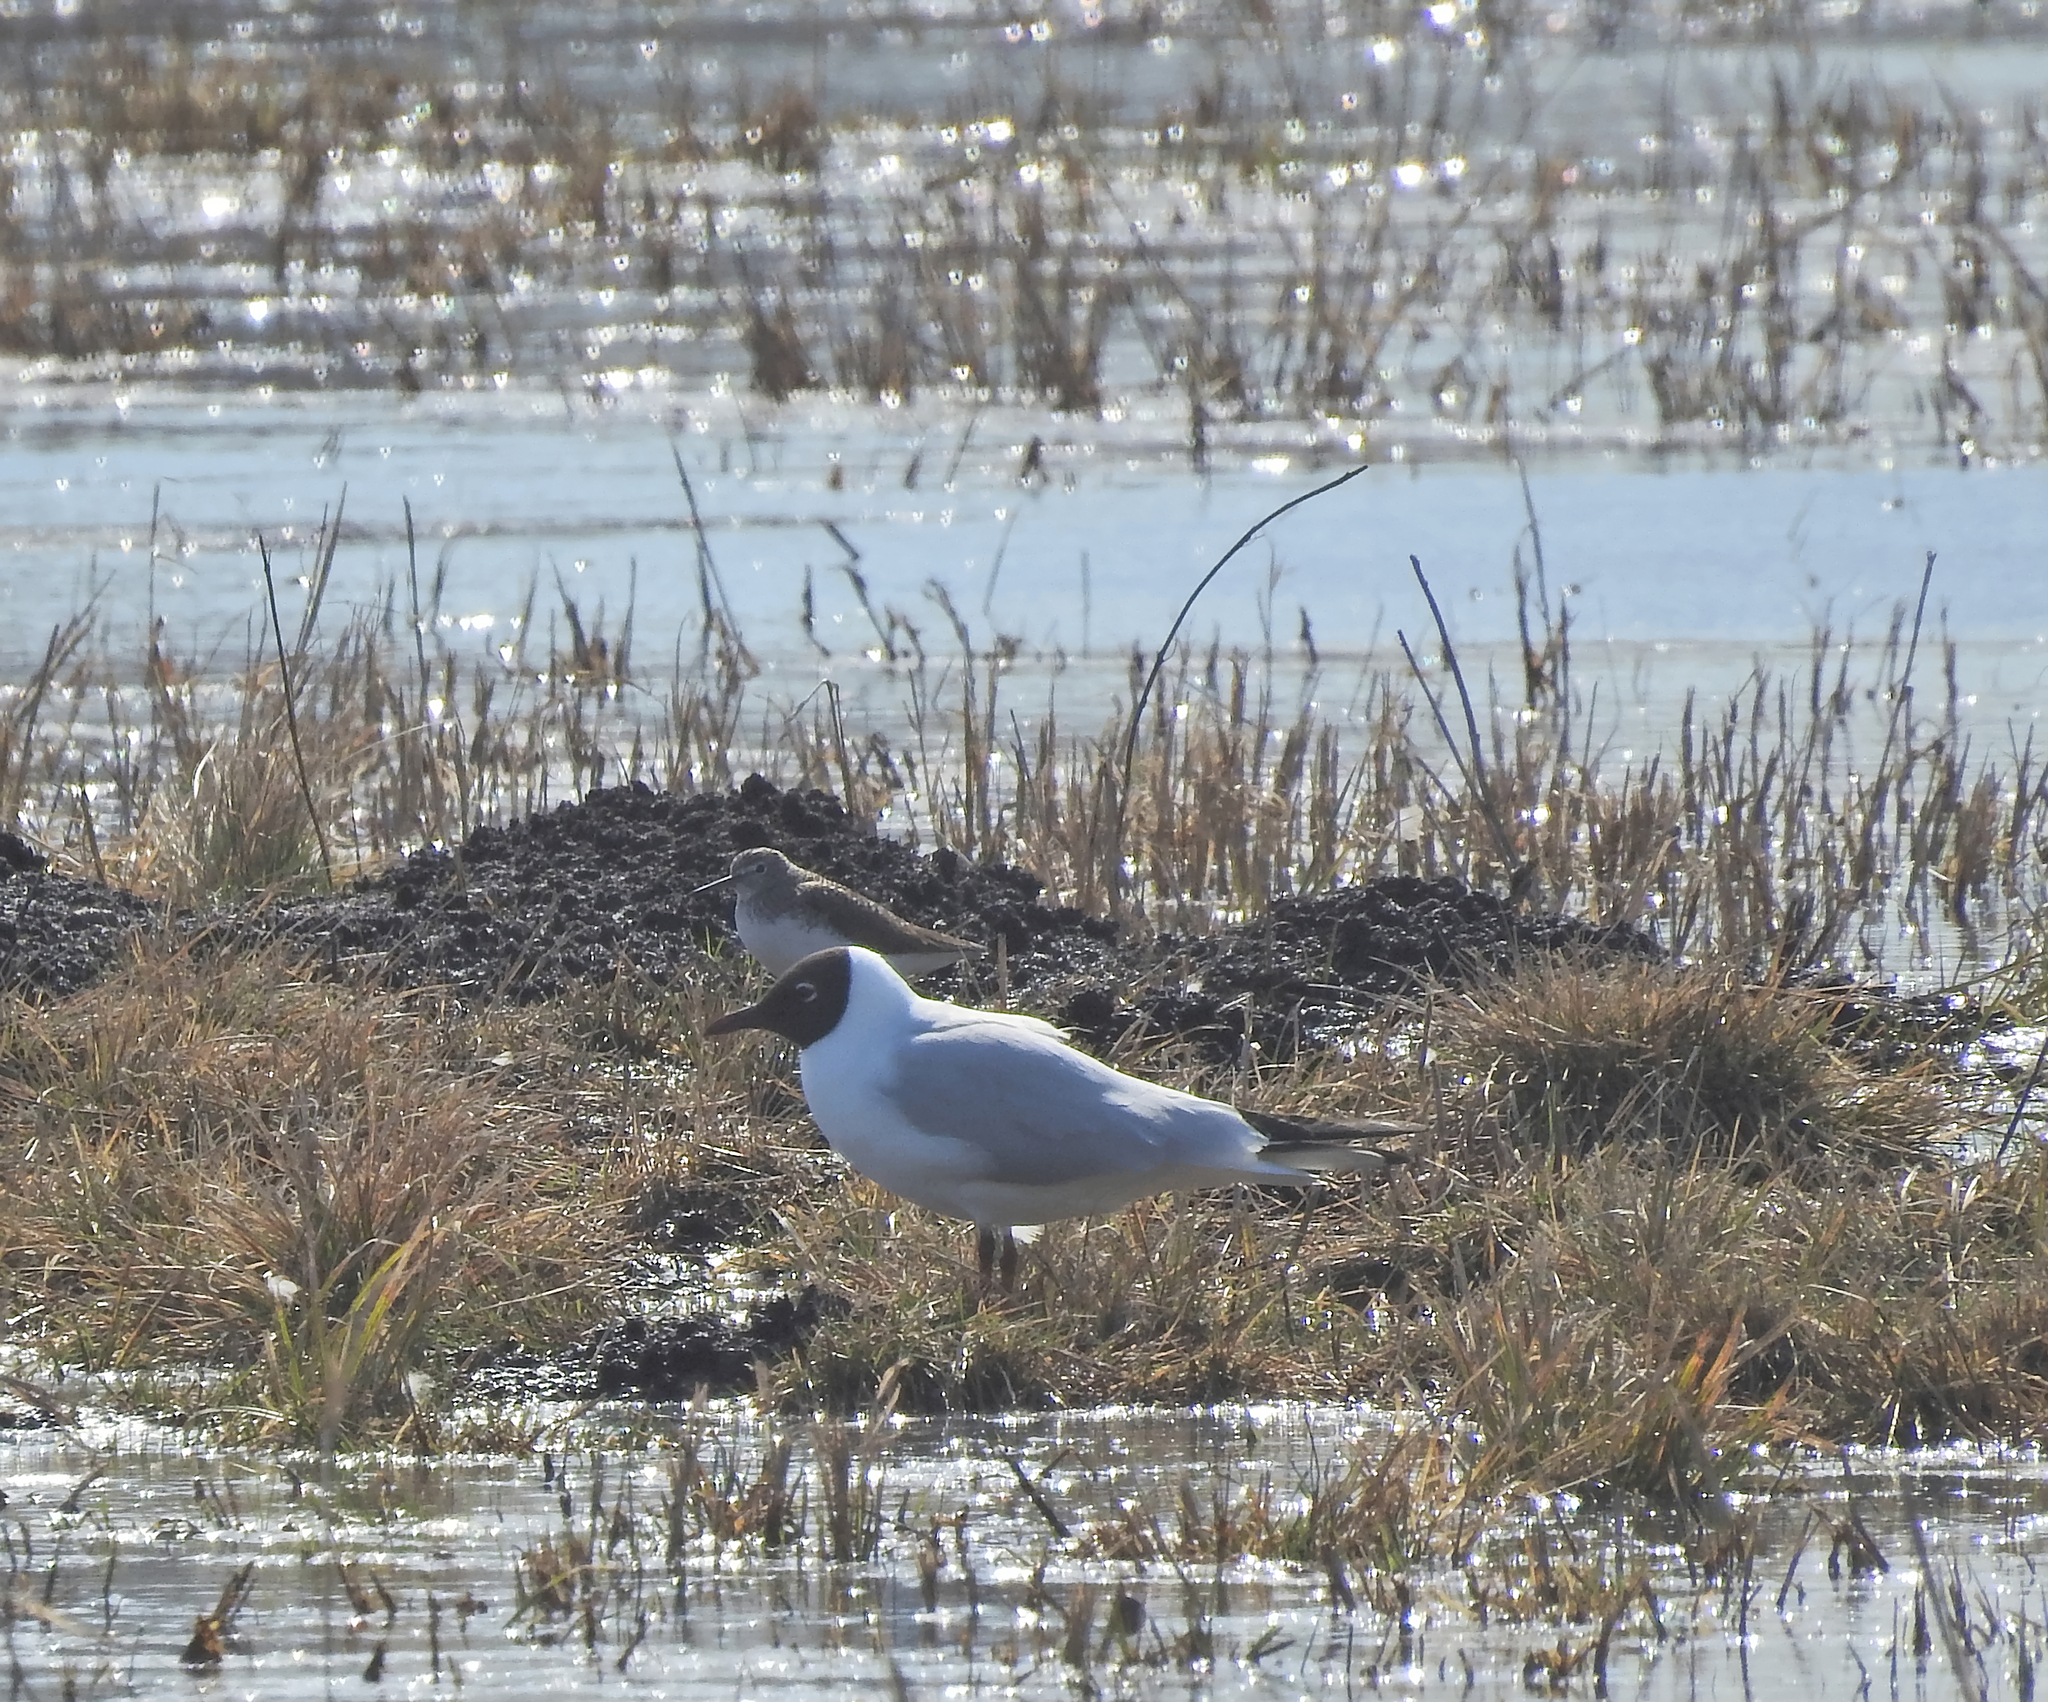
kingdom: Animalia
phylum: Chordata
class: Aves
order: Charadriiformes
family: Laridae
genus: Chroicocephalus
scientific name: Chroicocephalus ridibundus
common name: Black-headed gull
